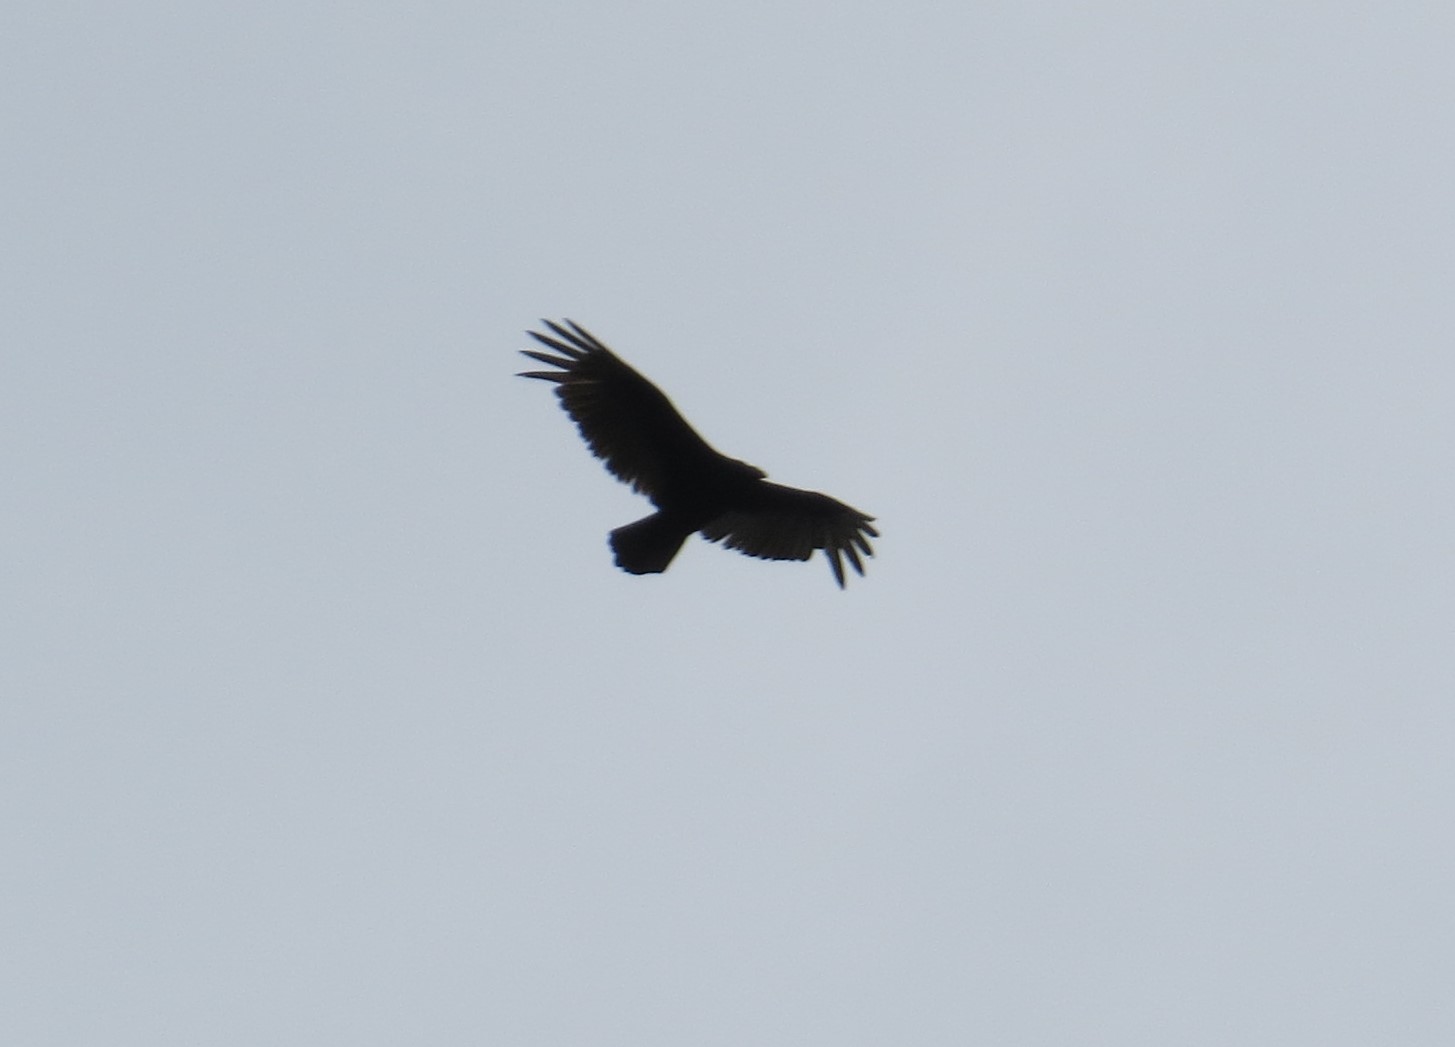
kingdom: Animalia
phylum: Chordata
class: Aves
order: Accipitriformes
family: Cathartidae
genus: Cathartes
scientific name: Cathartes aura
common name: Turkey vulture
